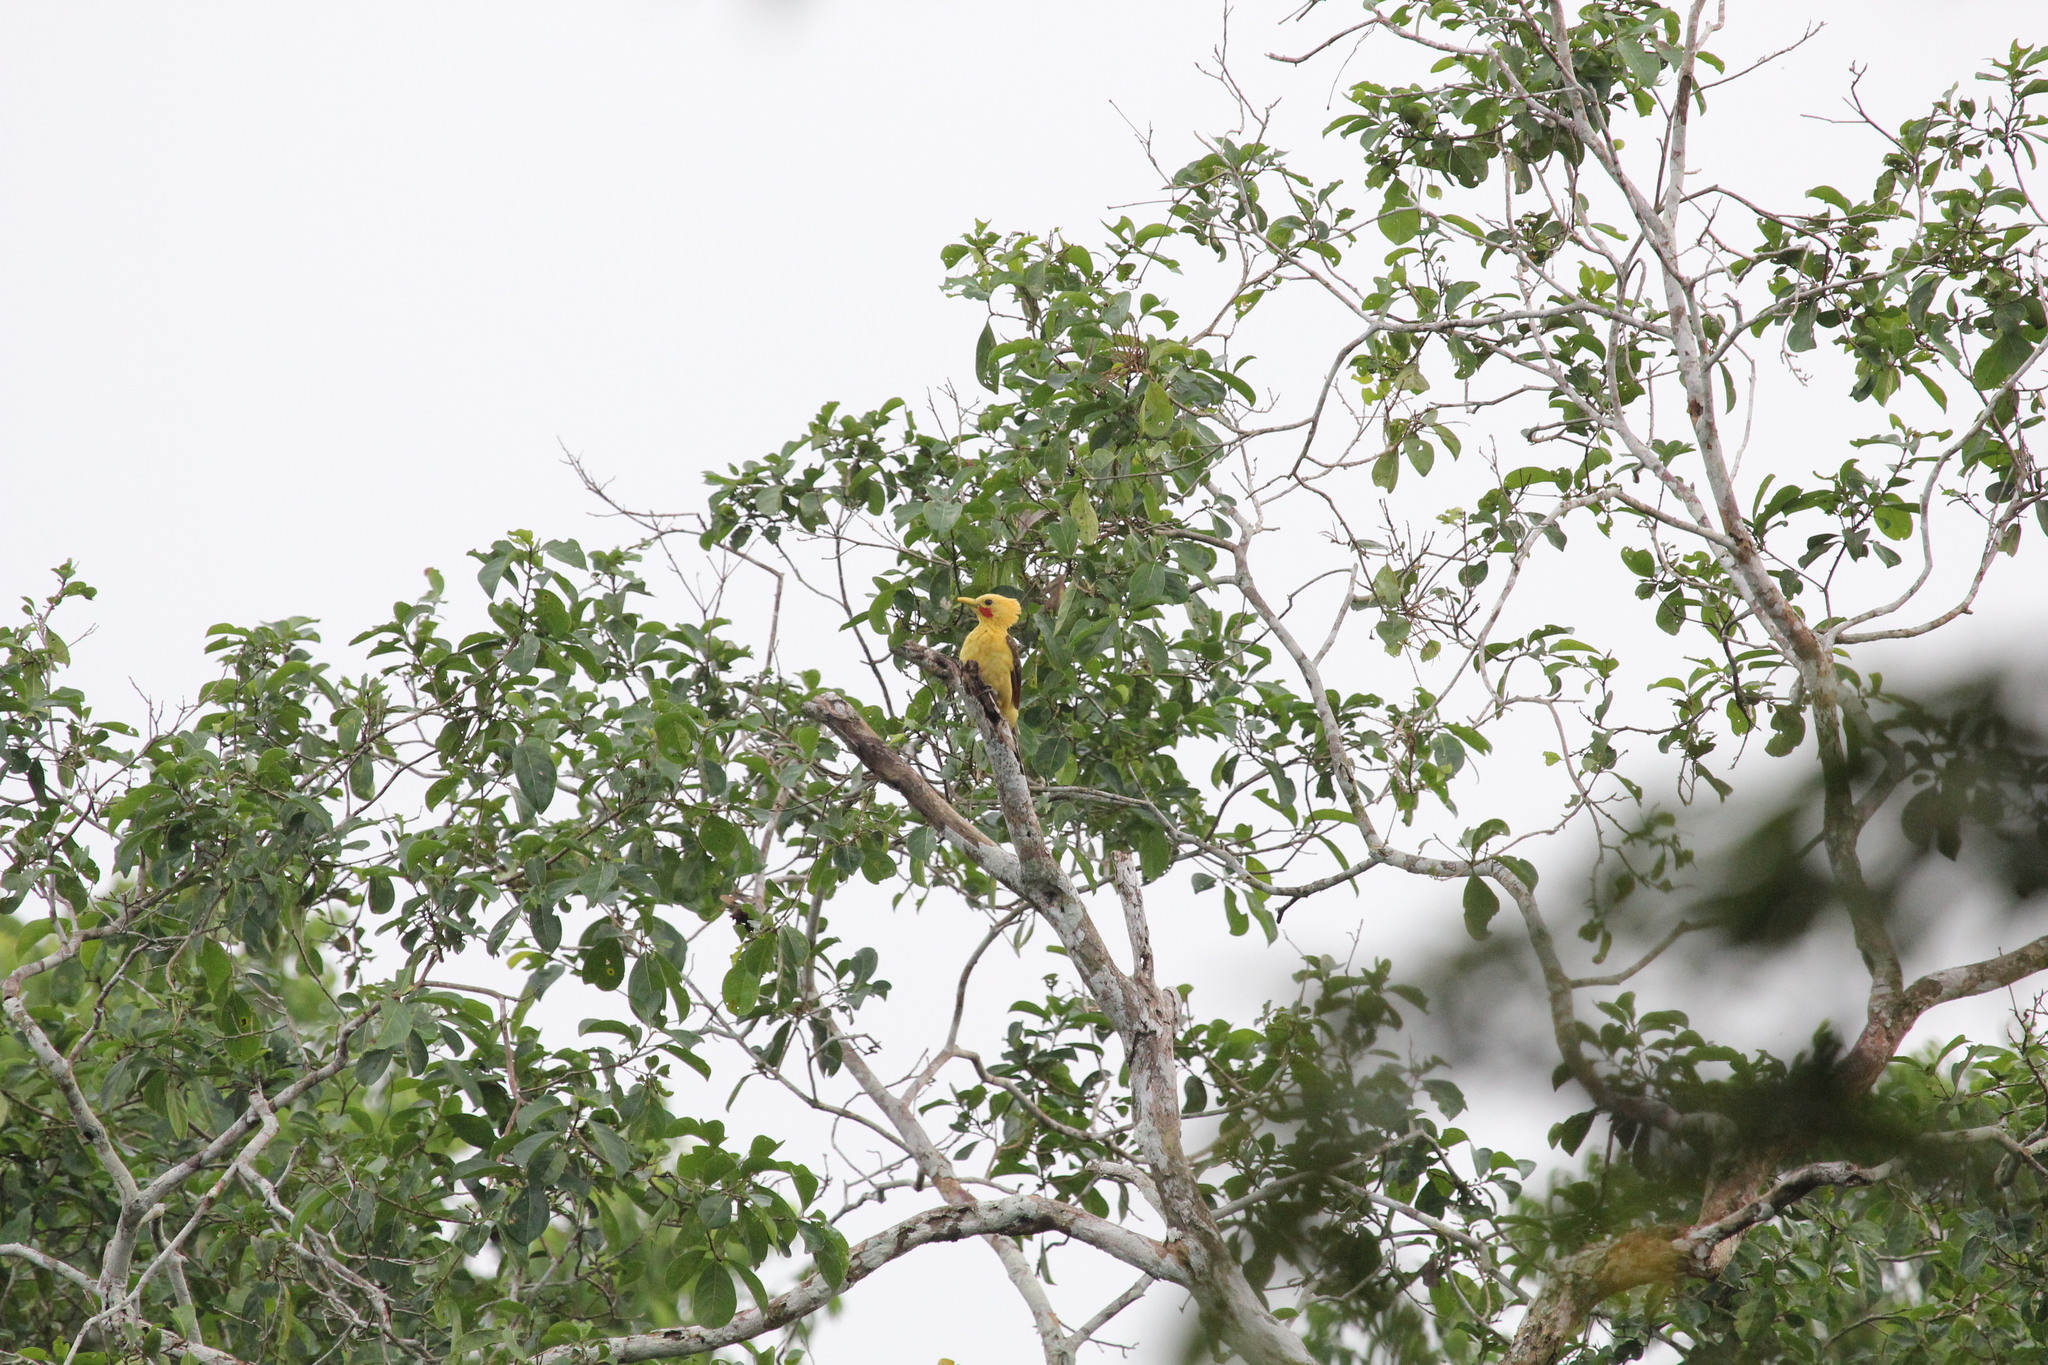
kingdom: Animalia
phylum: Chordata
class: Aves
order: Piciformes
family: Picidae
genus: Celeus
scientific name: Celeus flavus
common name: Cream-colored woodpecker
